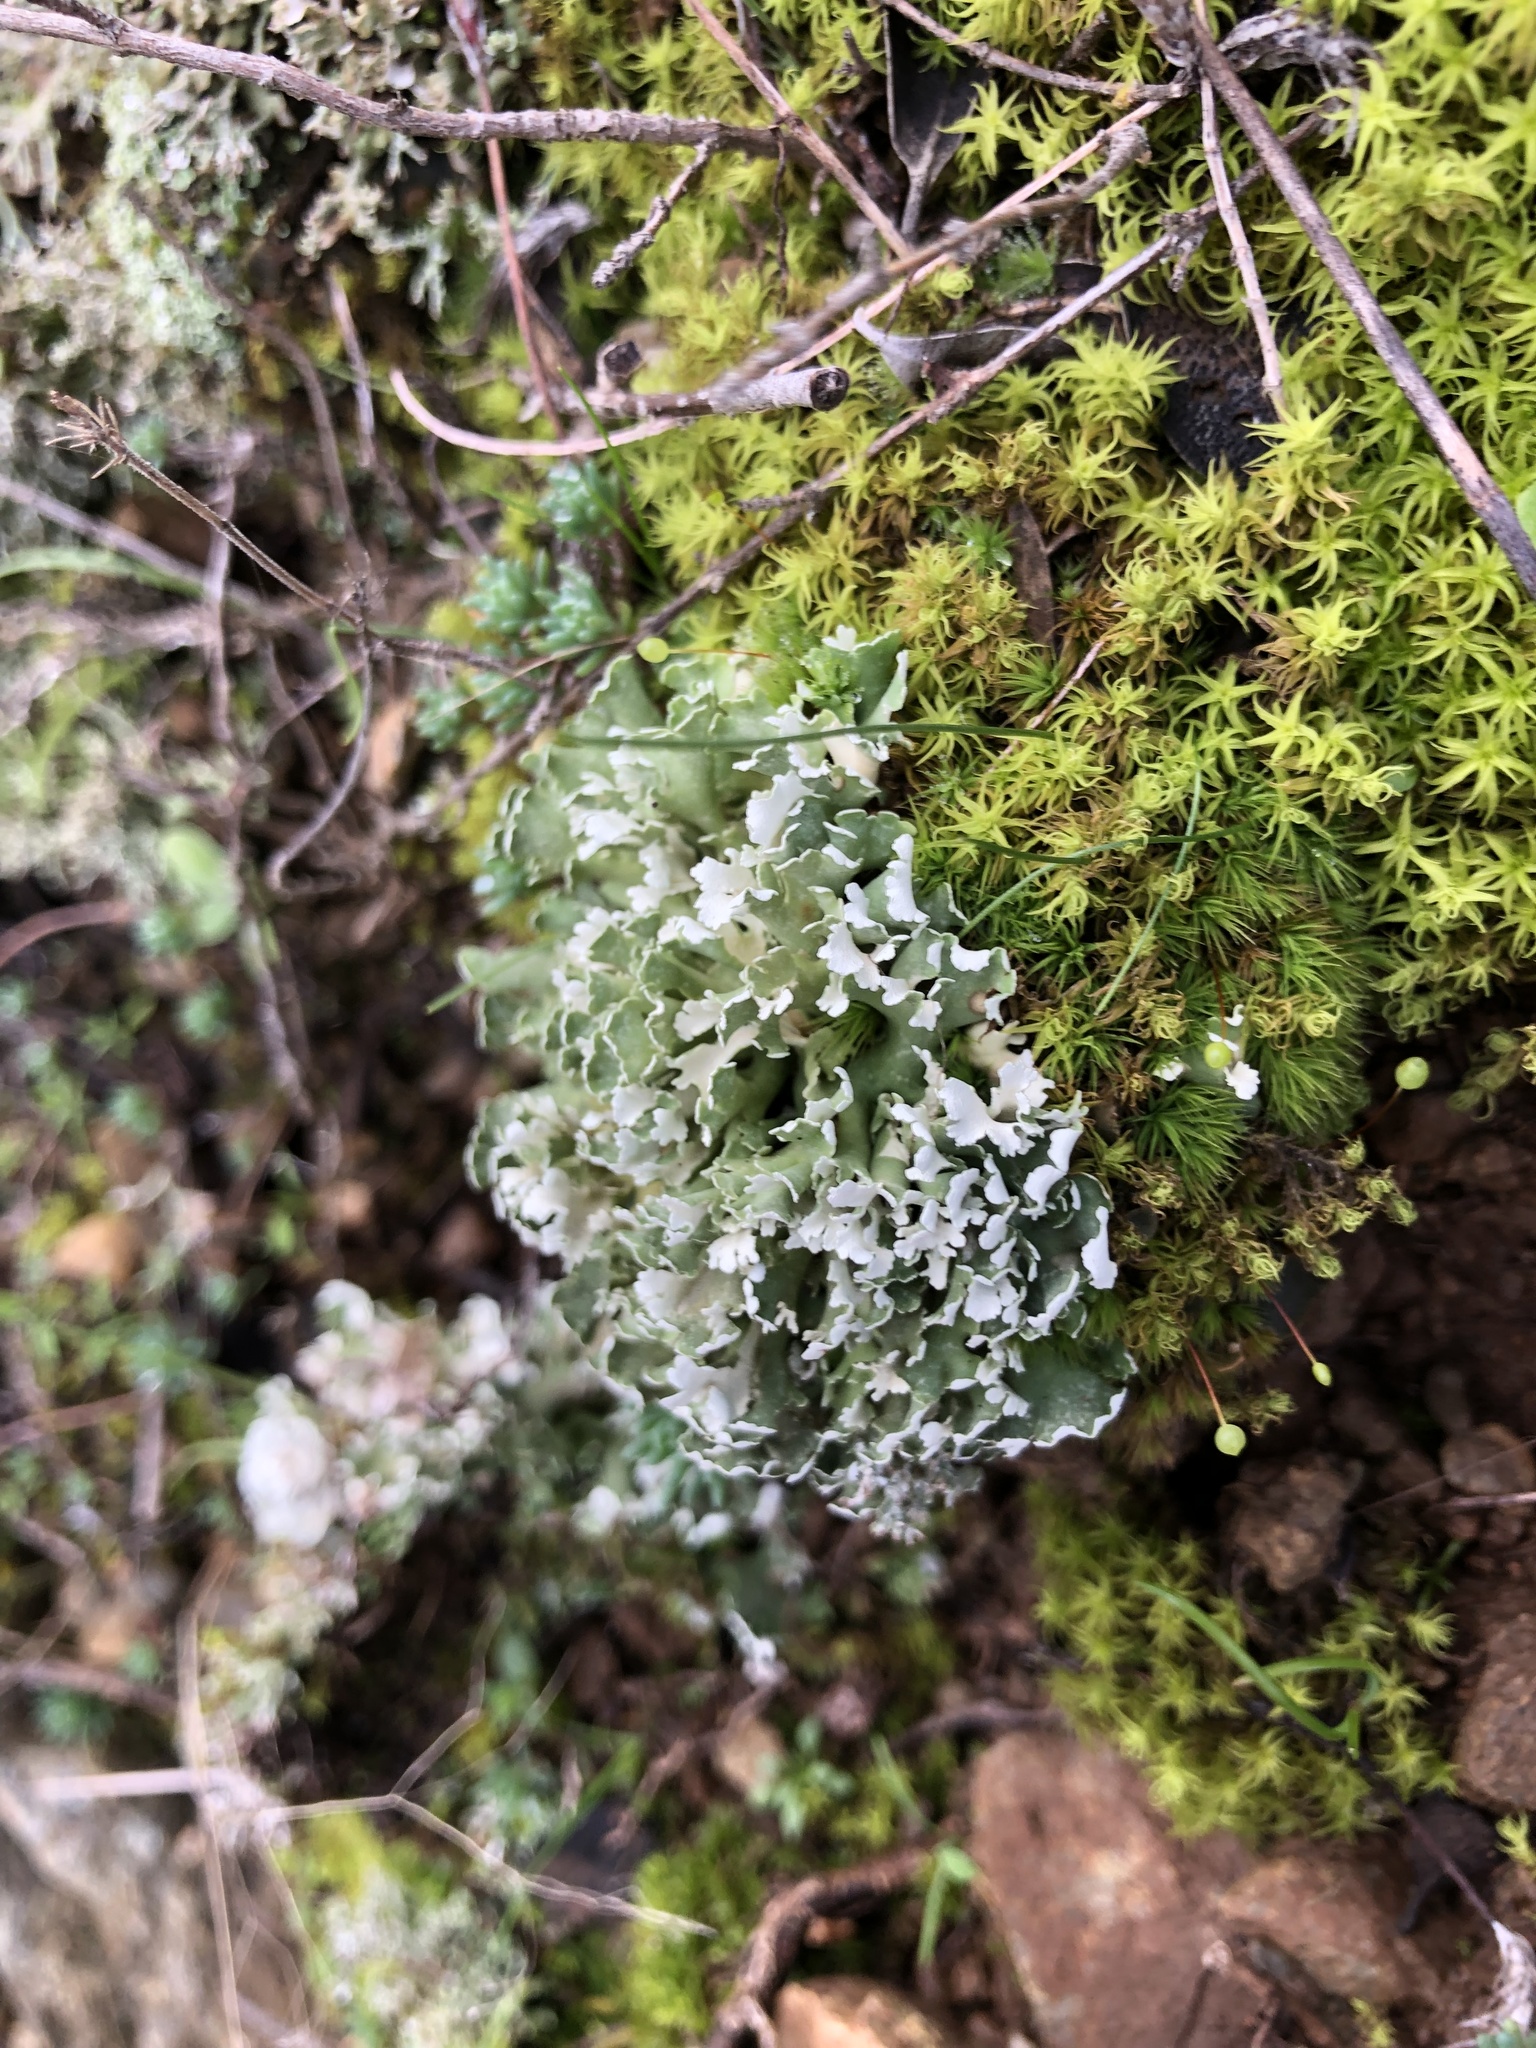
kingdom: Fungi
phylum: Ascomycota
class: Lecanoromycetes
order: Lecanorales
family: Cladoniaceae
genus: Cladonia
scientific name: Cladonia foliacea
